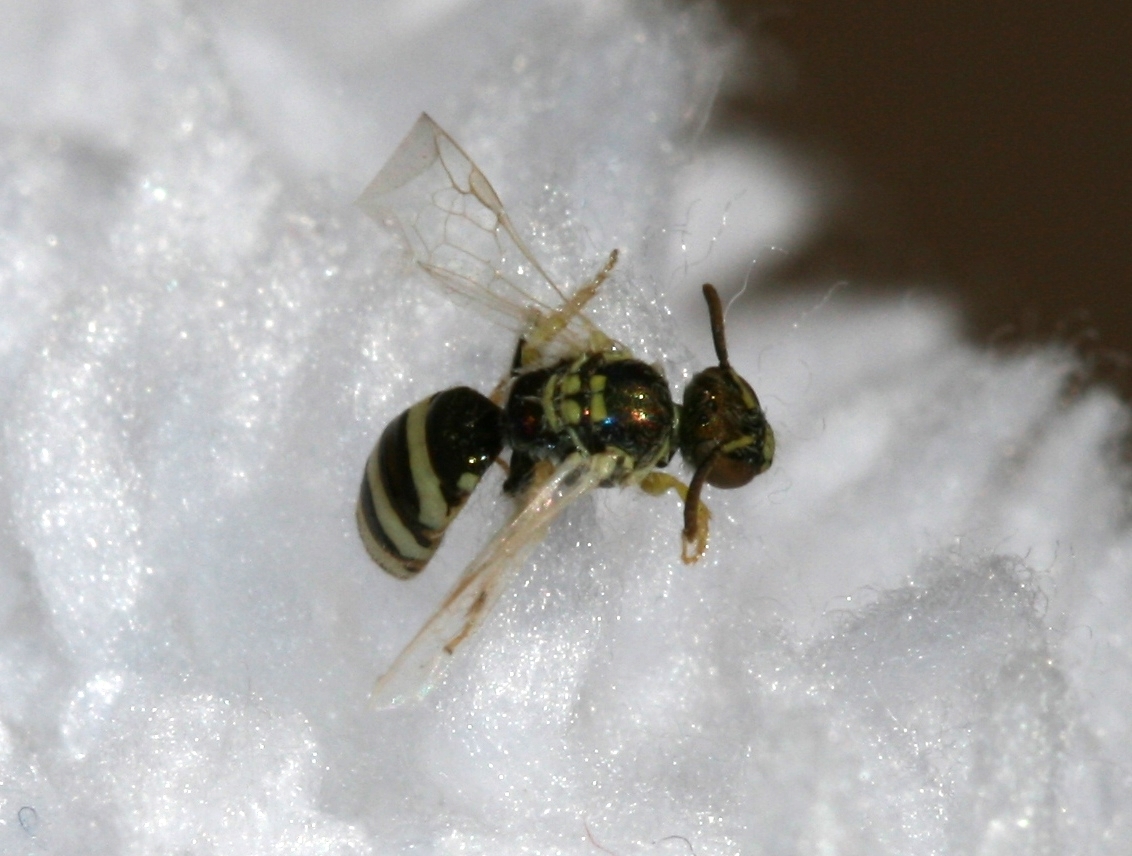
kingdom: Animalia
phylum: Arthropoda
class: Insecta
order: Hymenoptera
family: Halictidae
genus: Ceylalictus
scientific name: Ceylalictus variegatus
